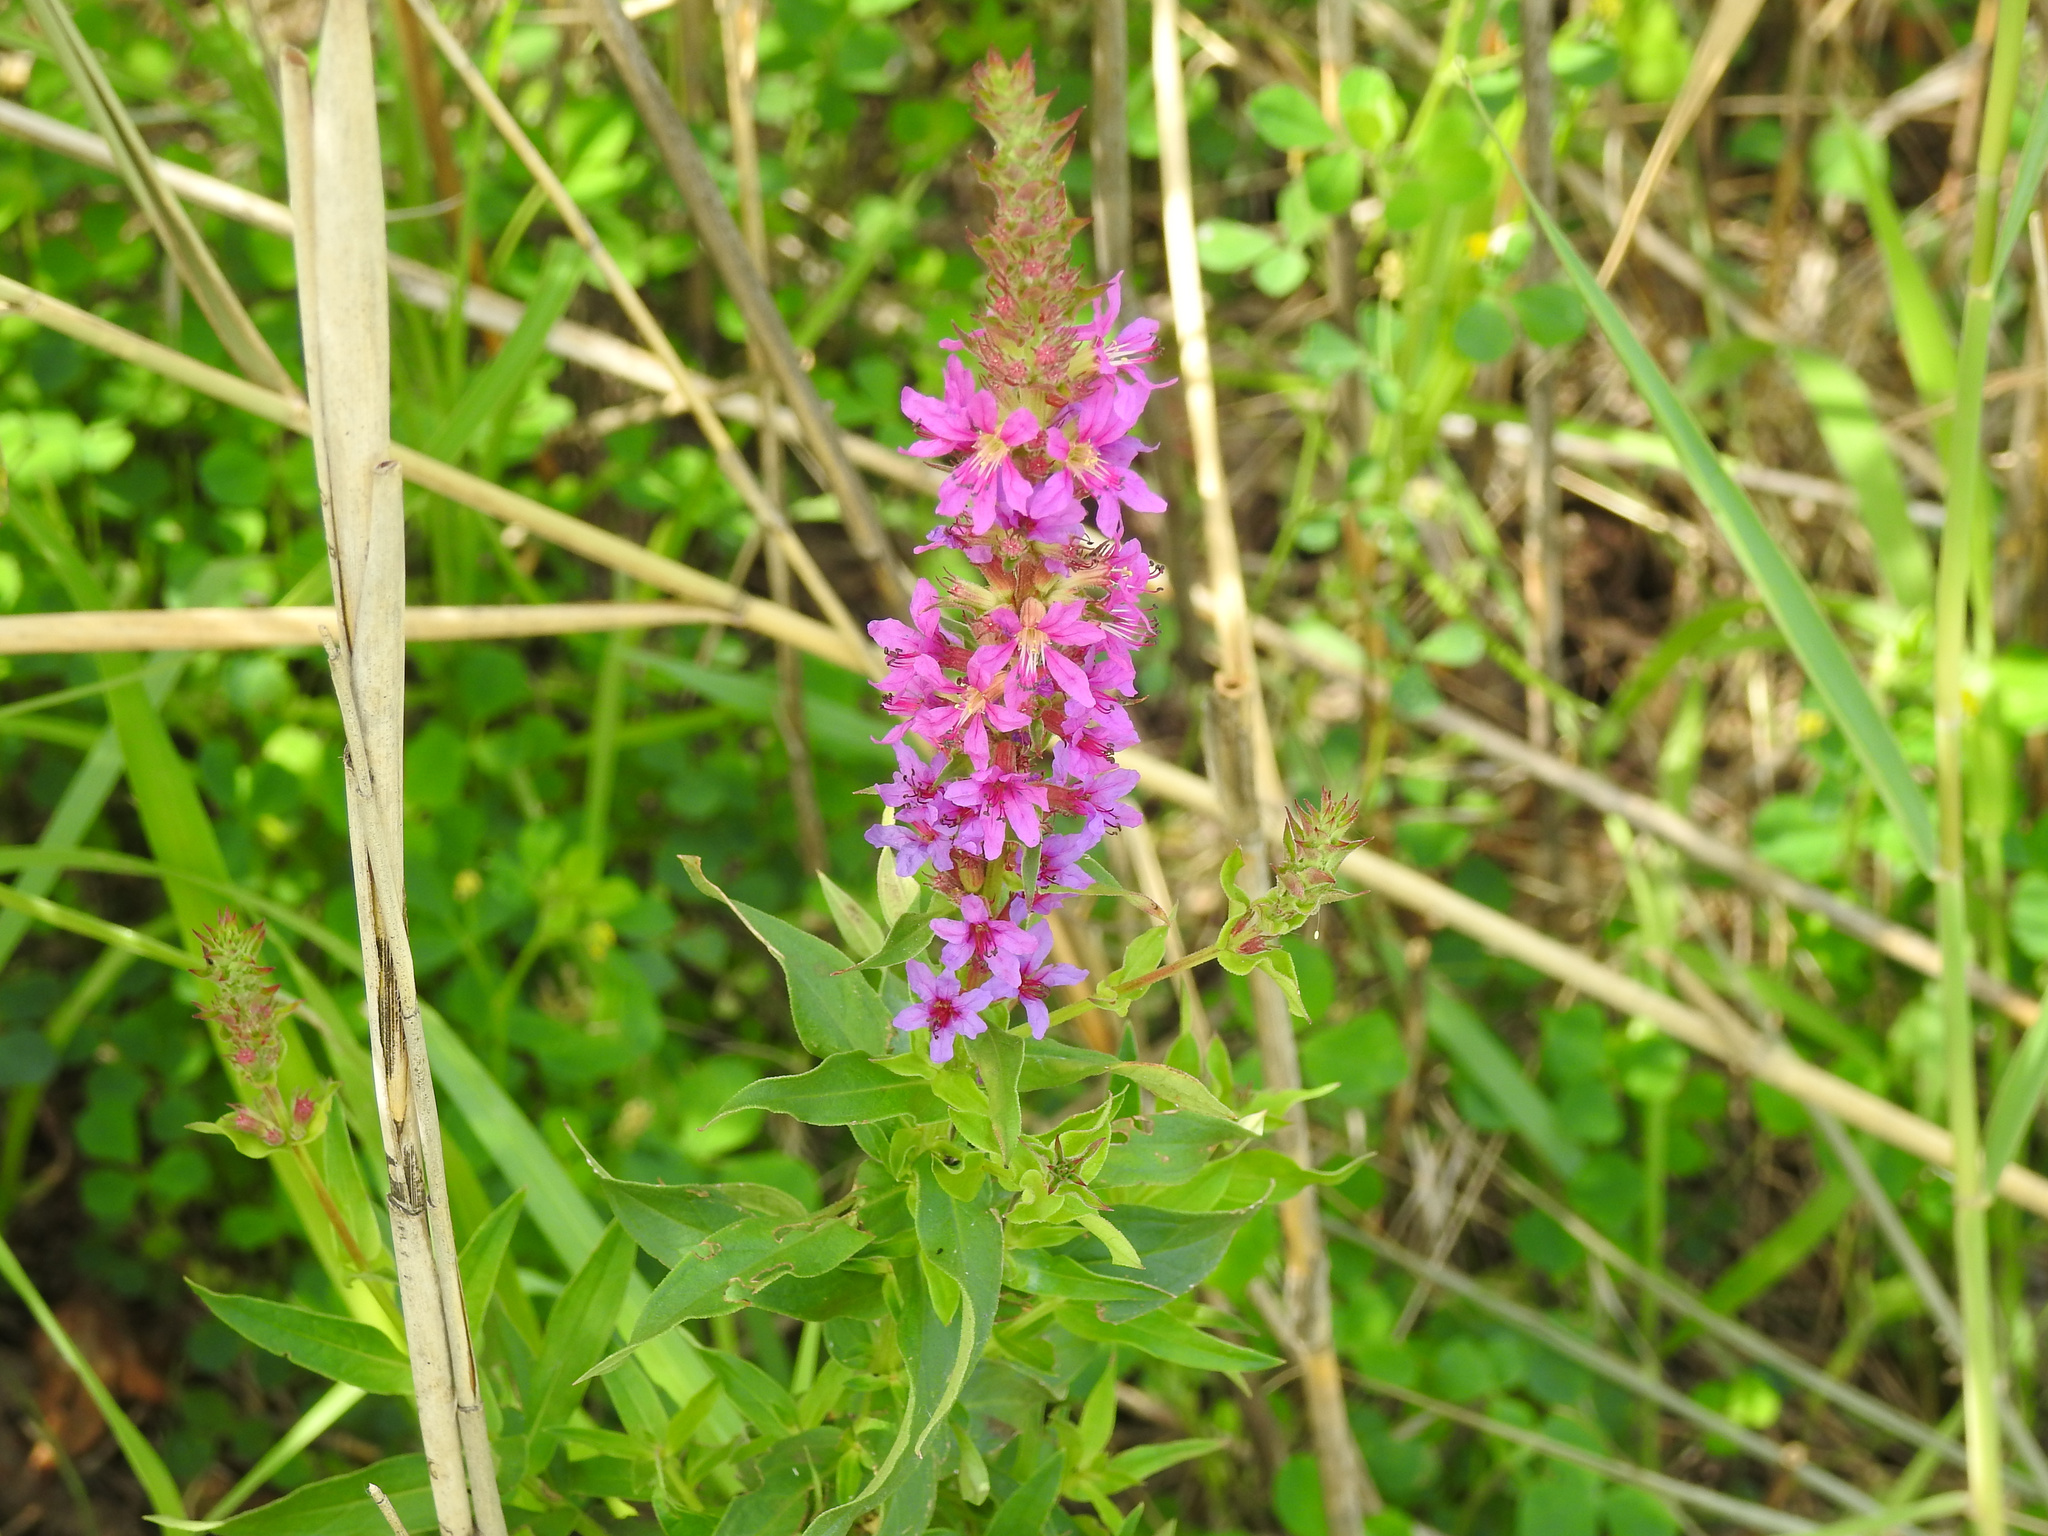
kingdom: Plantae
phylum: Tracheophyta
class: Magnoliopsida
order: Myrtales
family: Lythraceae
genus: Lythrum
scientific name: Lythrum salicaria
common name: Purple loosestrife
